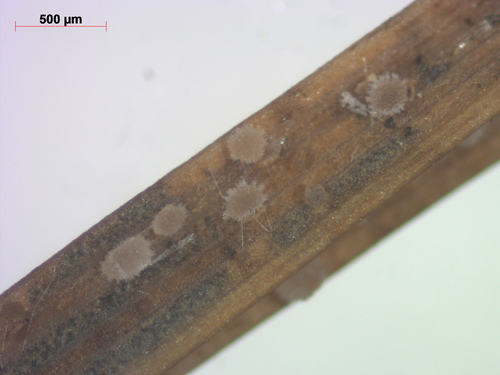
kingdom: Fungi
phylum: Ascomycota
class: Leotiomycetes
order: Helotiales
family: Dermateaceae
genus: Hysteropezizella
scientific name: Hysteropezizella diminuens
